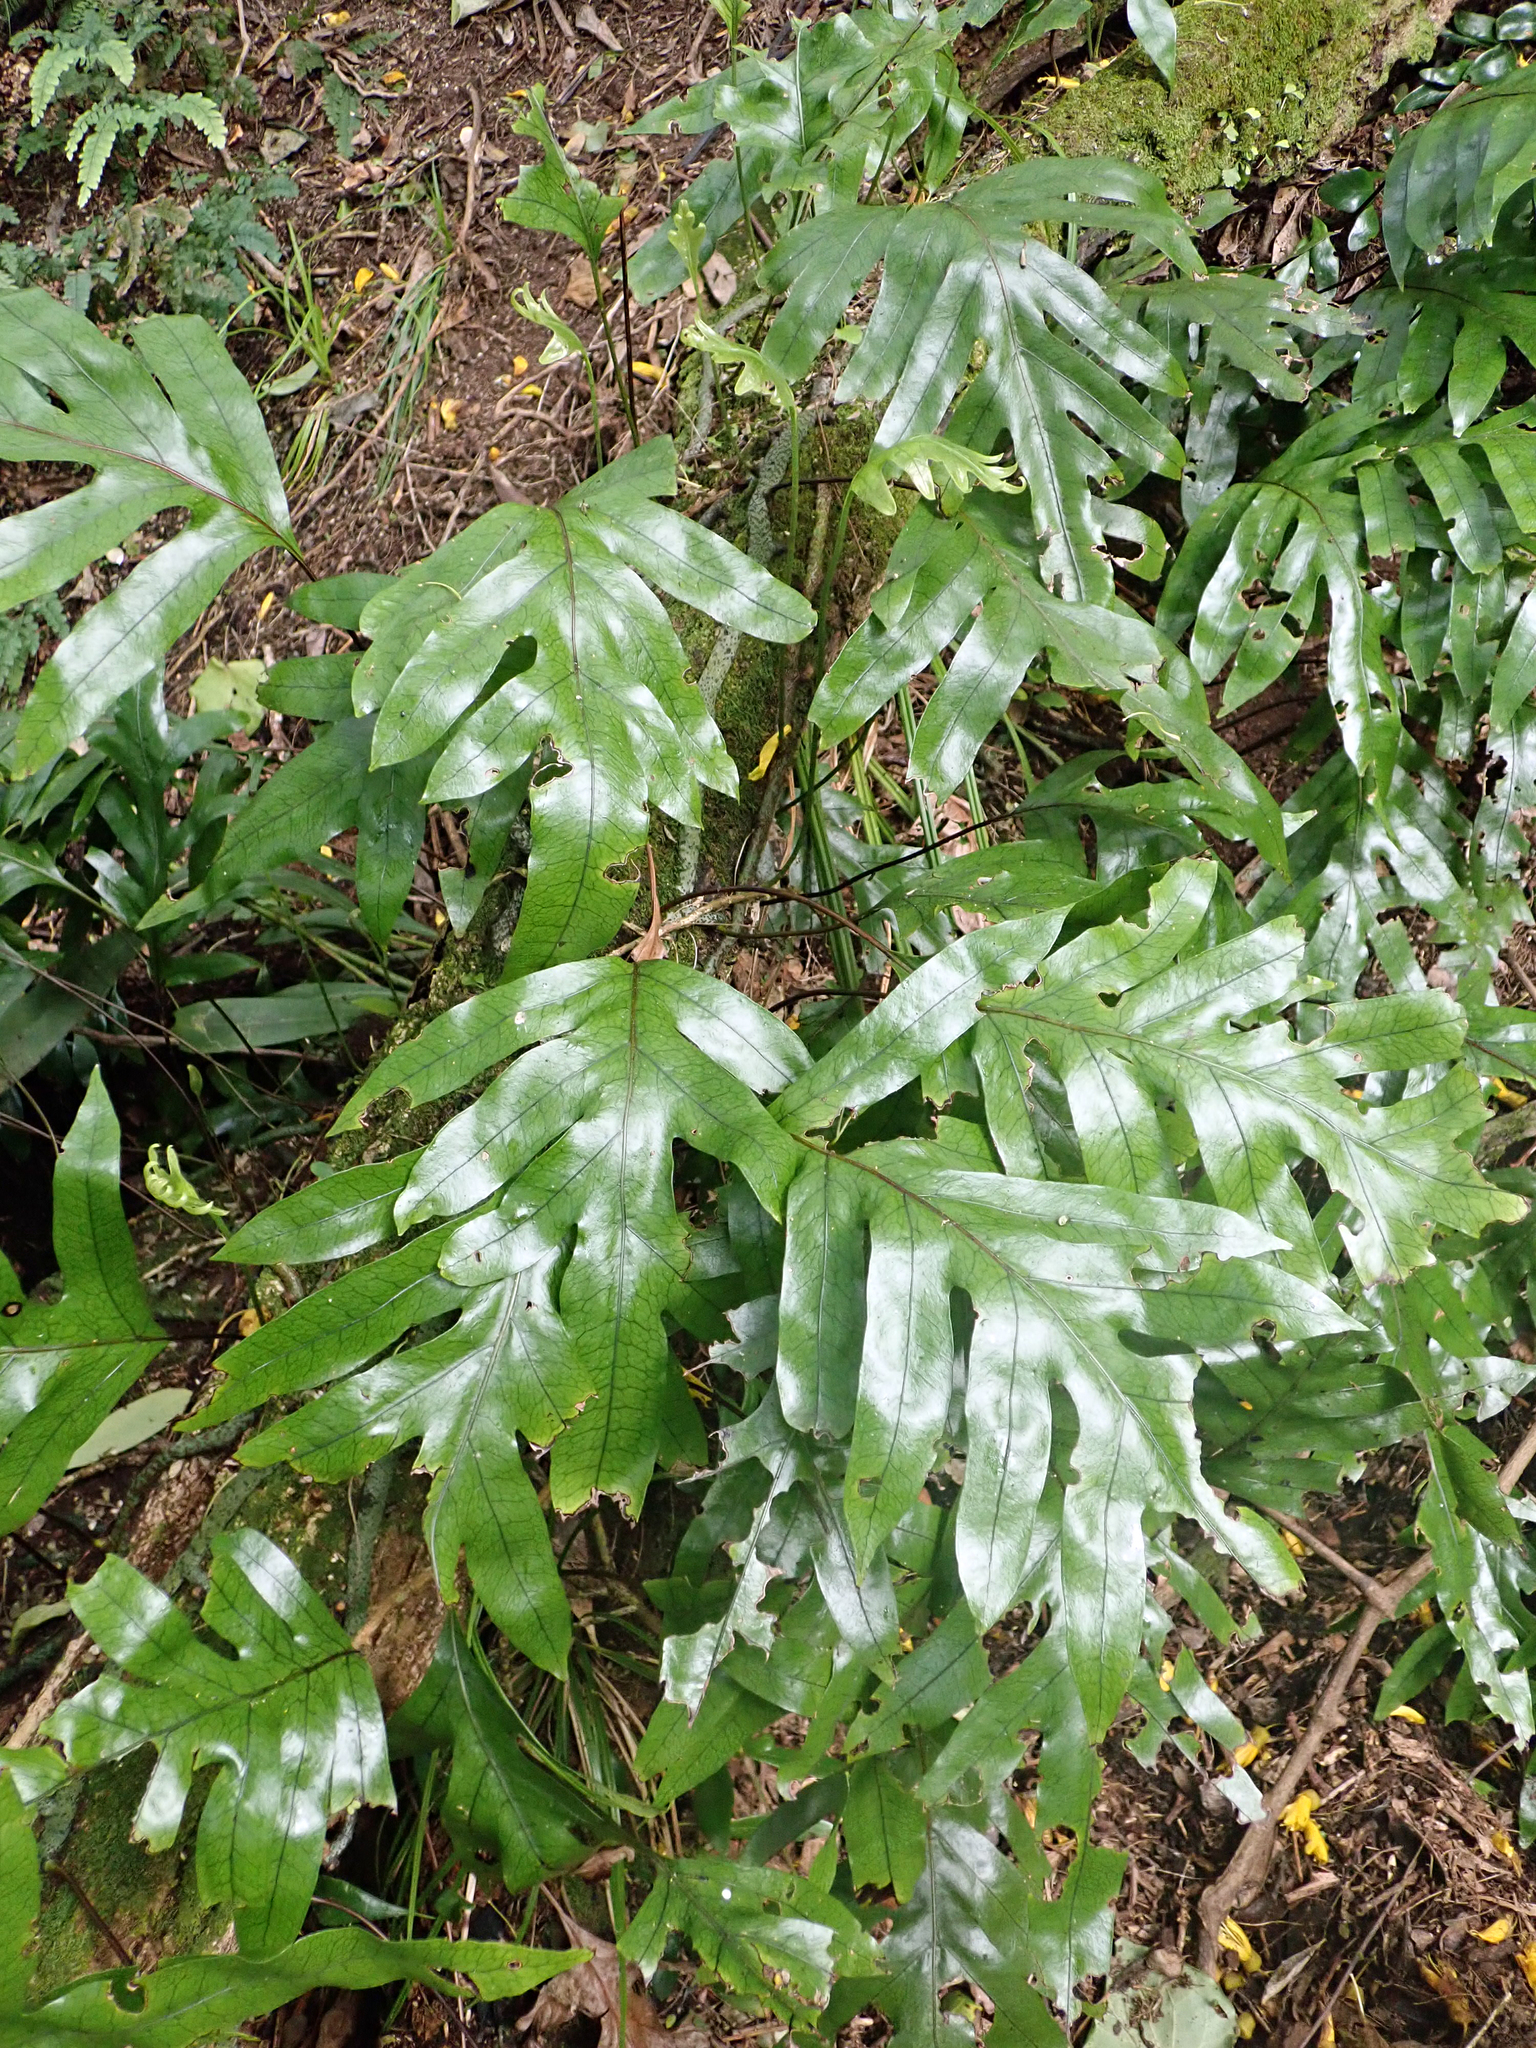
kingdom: Plantae
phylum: Tracheophyta
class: Polypodiopsida
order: Polypodiales
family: Polypodiaceae
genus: Lecanopteris
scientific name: Lecanopteris pustulata
